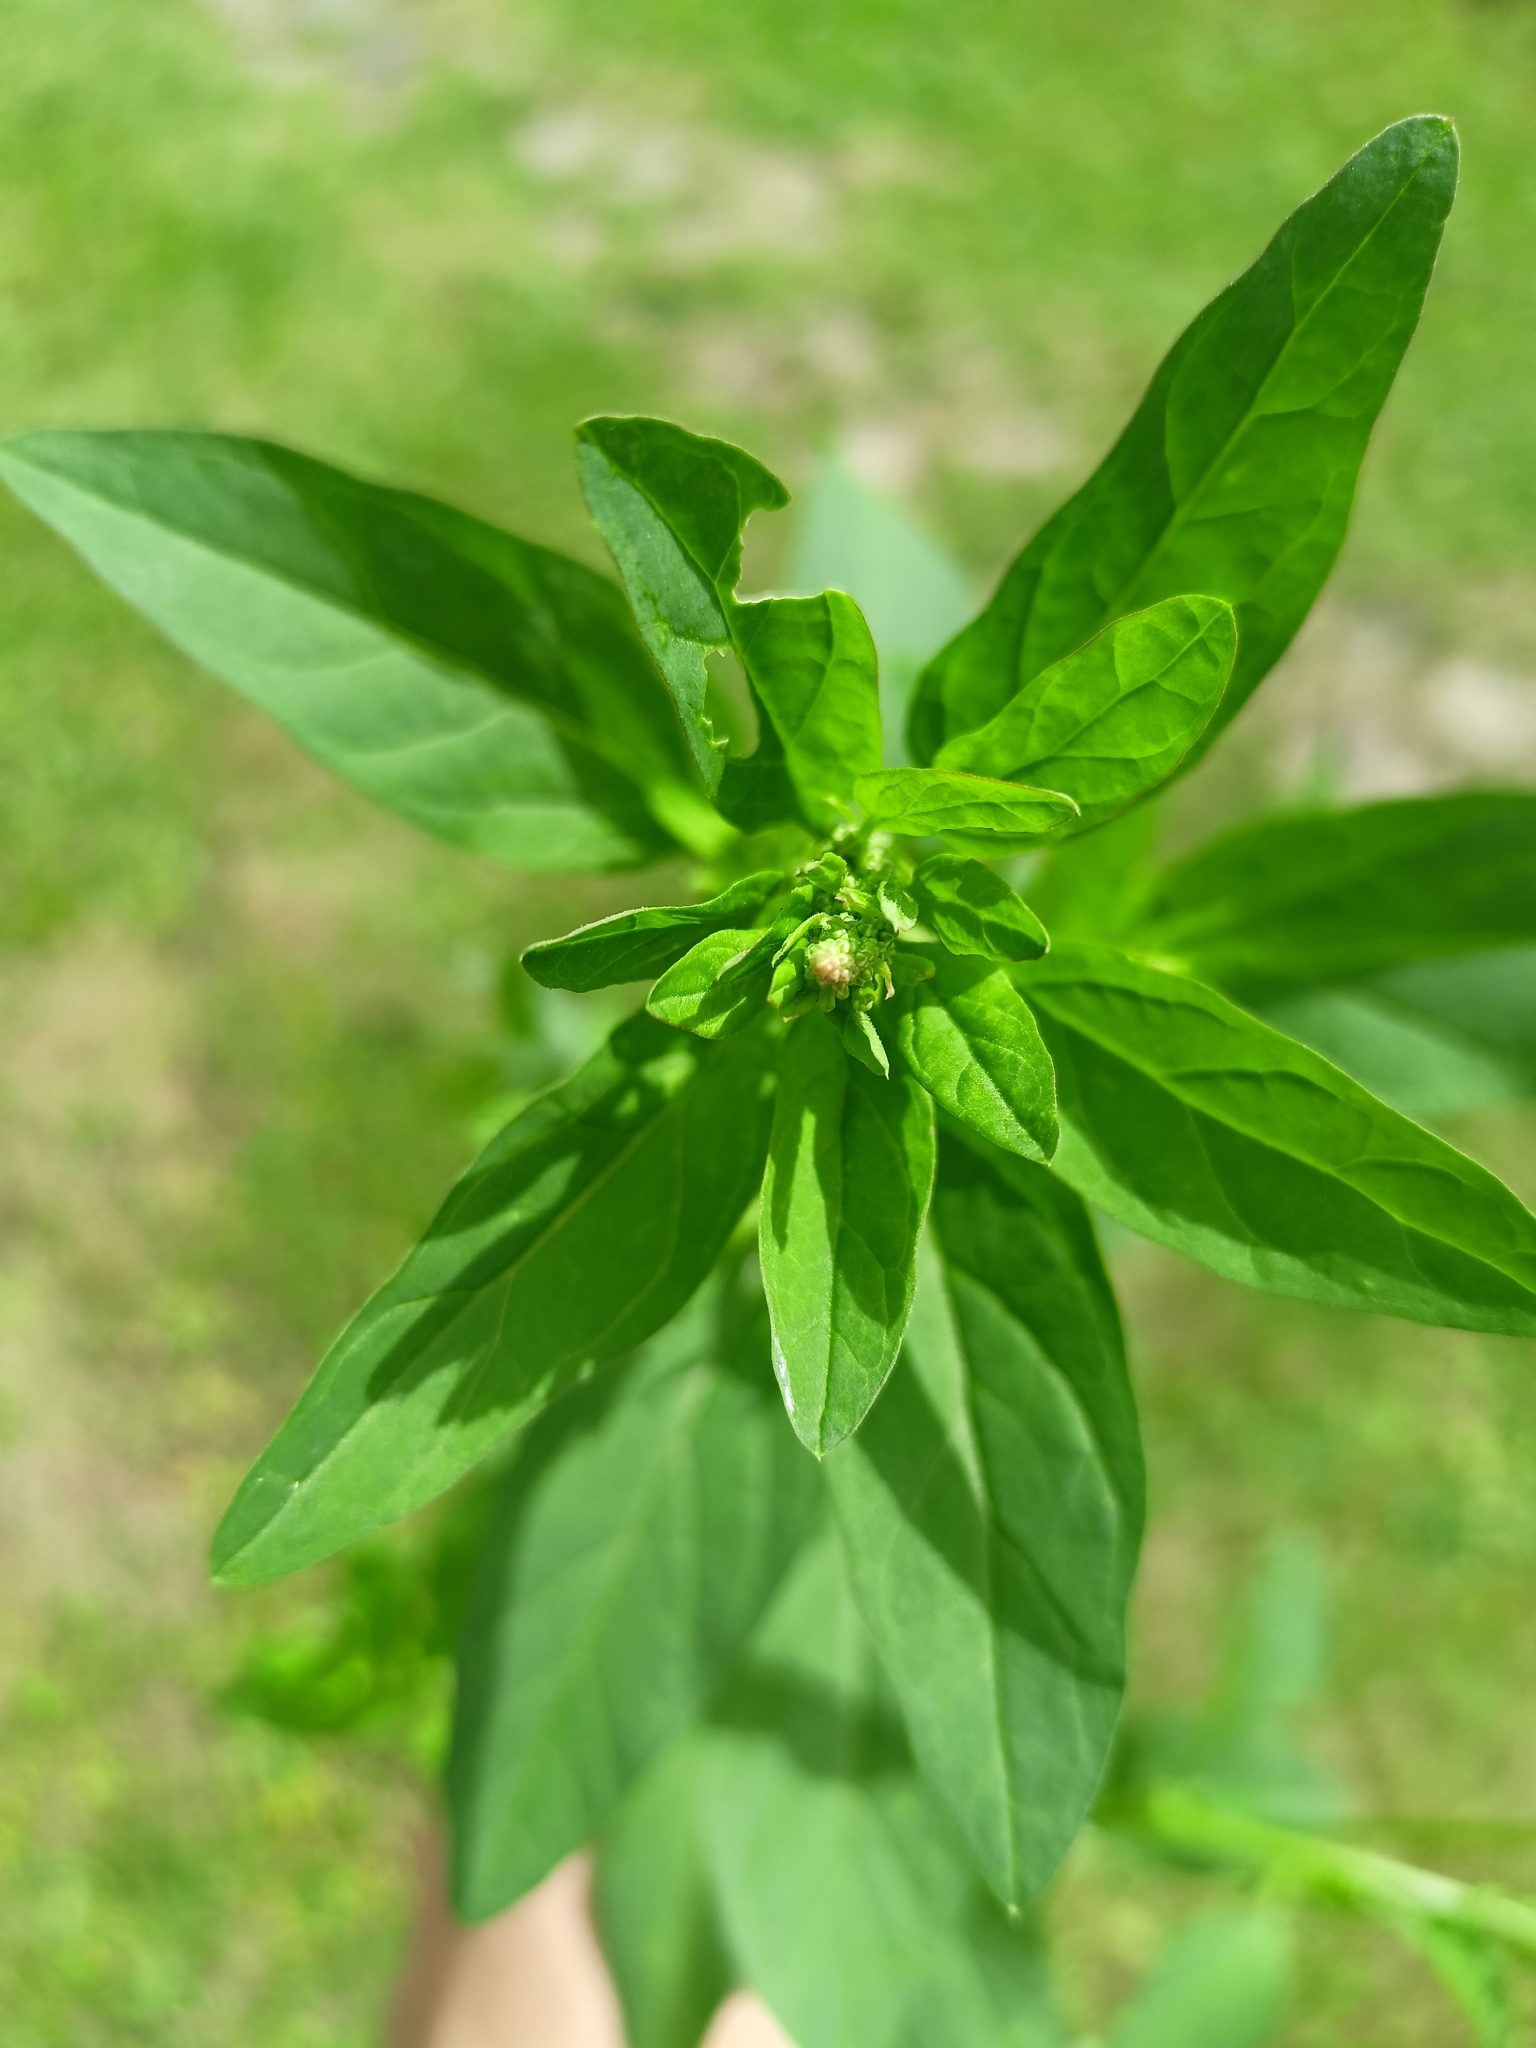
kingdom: Plantae
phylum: Tracheophyta
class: Magnoliopsida
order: Caryophyllales
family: Amaranthaceae
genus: Lipandra
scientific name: Lipandra polysperma
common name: Many-seed goosefoot
